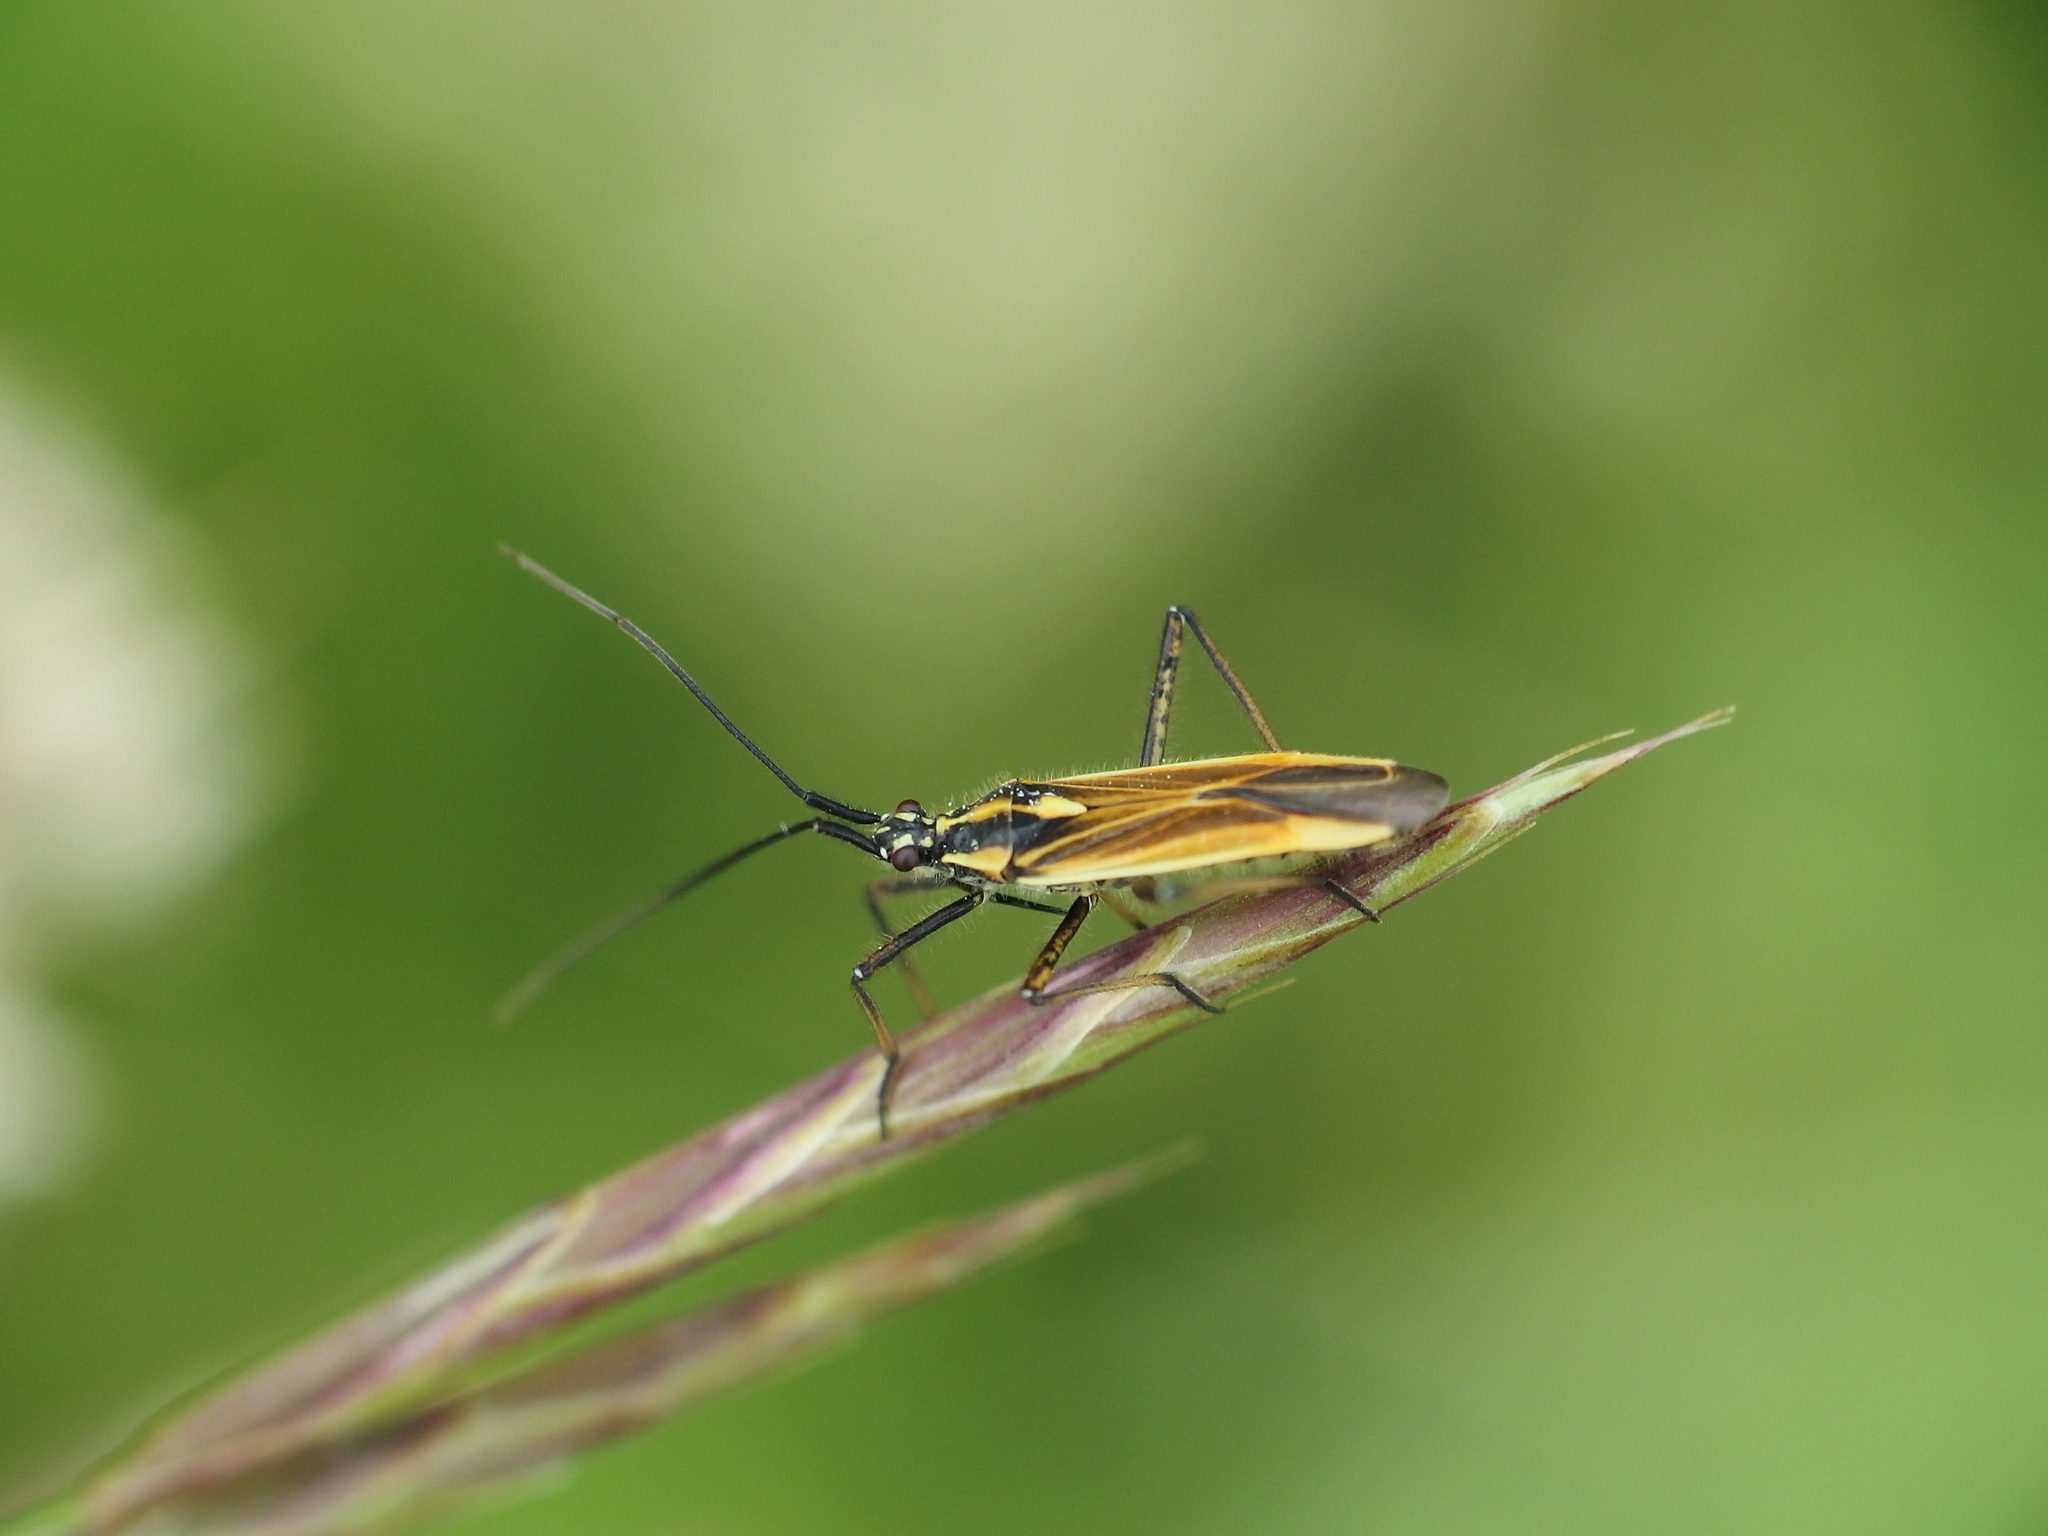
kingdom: Animalia
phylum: Arthropoda
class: Insecta
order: Hemiptera
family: Miridae
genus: Leptopterna
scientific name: Leptopterna dolabrata
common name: Meadow plant bug
